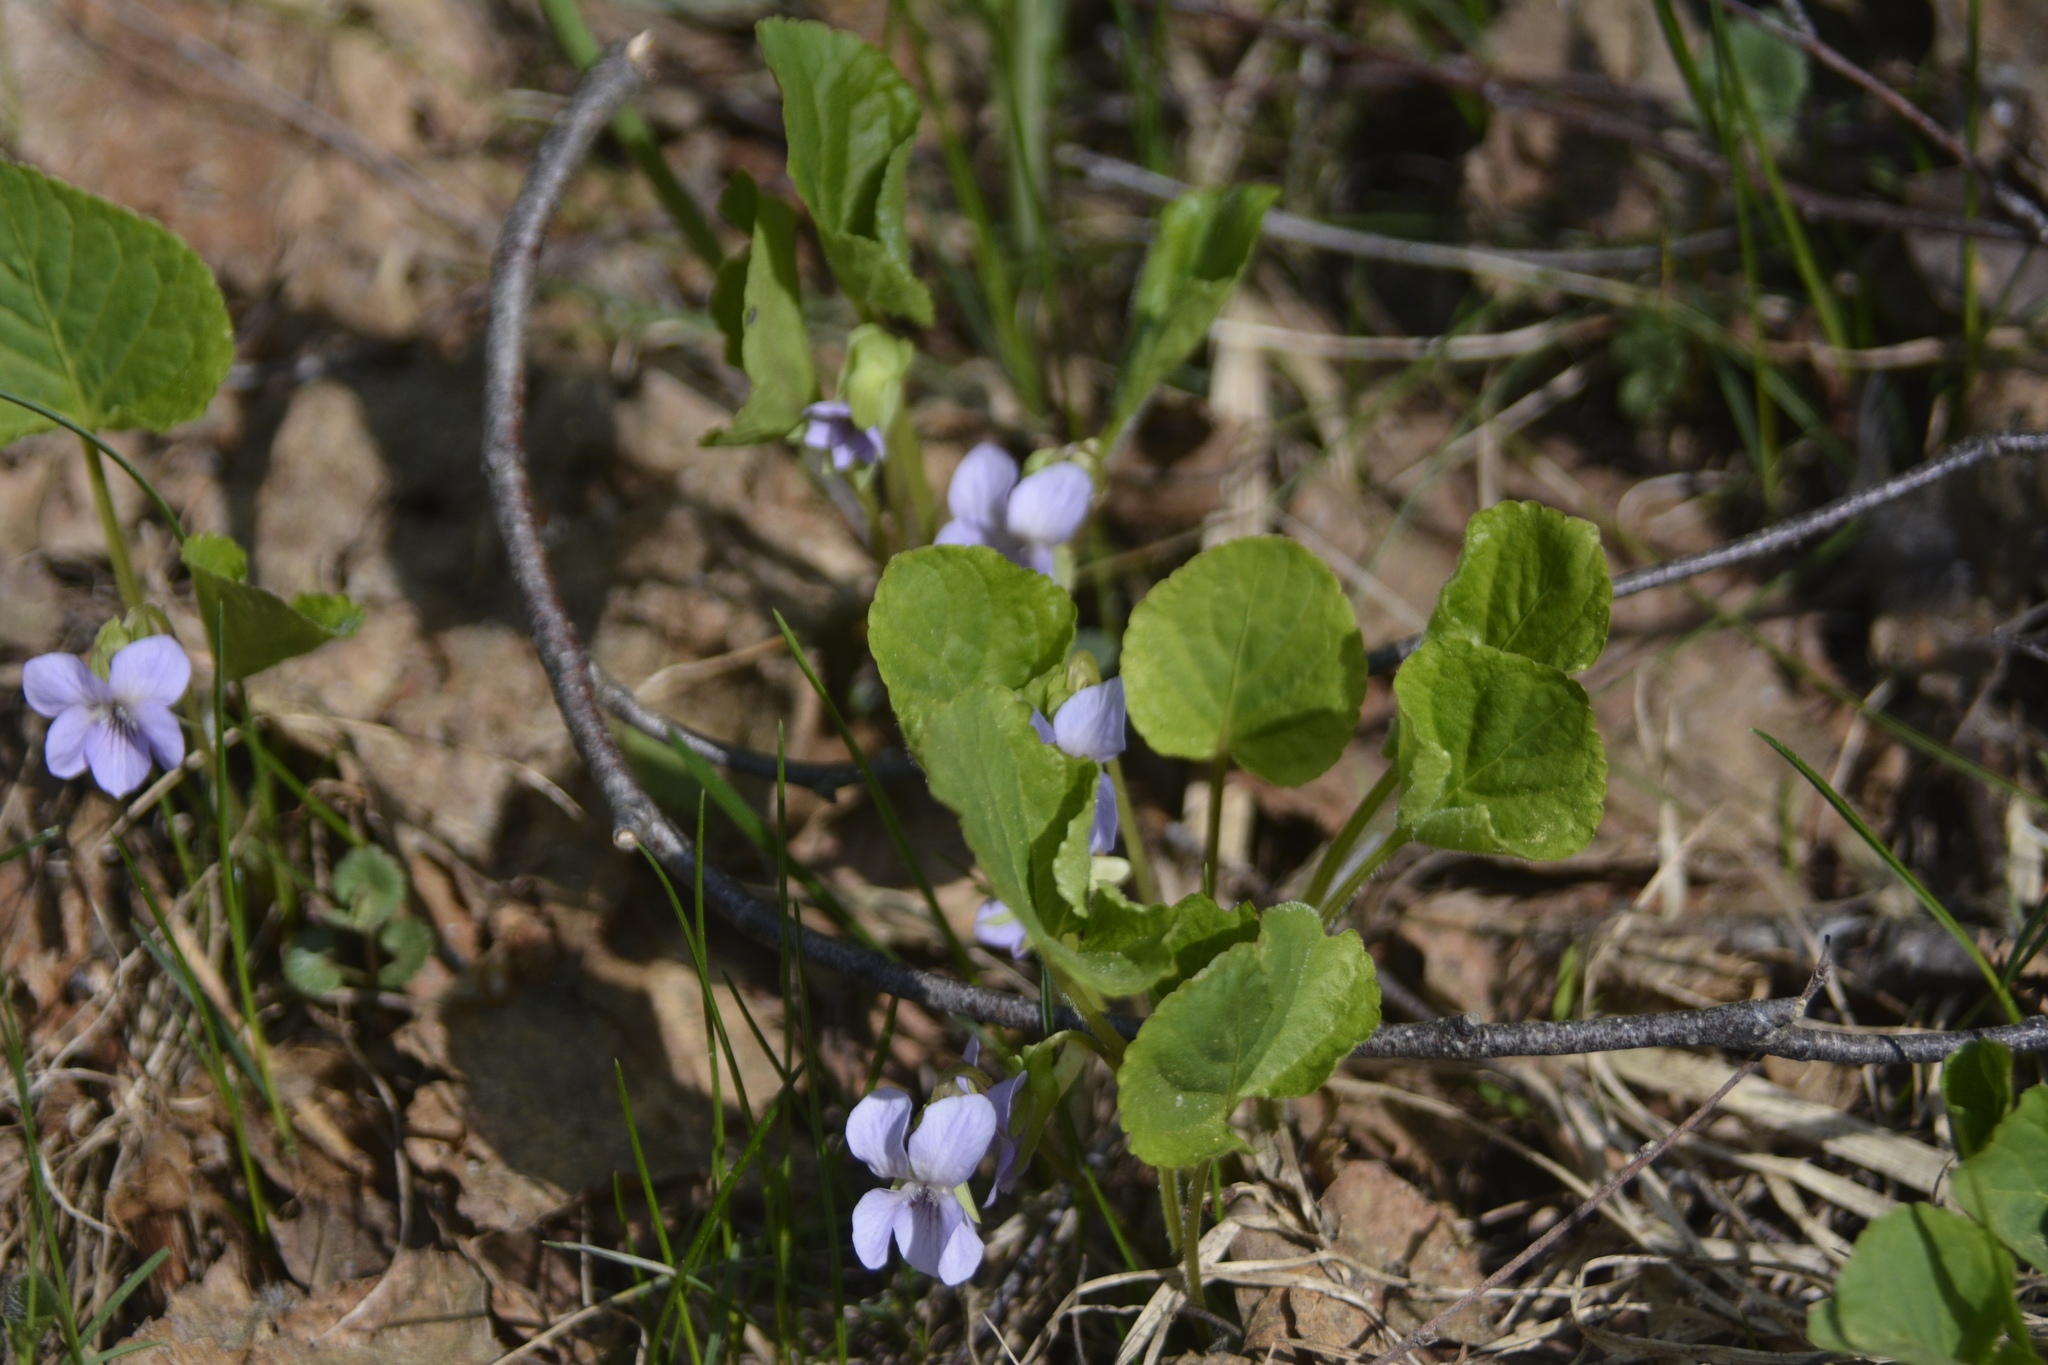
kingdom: Plantae
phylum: Tracheophyta
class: Magnoliopsida
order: Malpighiales
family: Violaceae
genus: Viola
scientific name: Viola mirabilis
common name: Wonder violet
